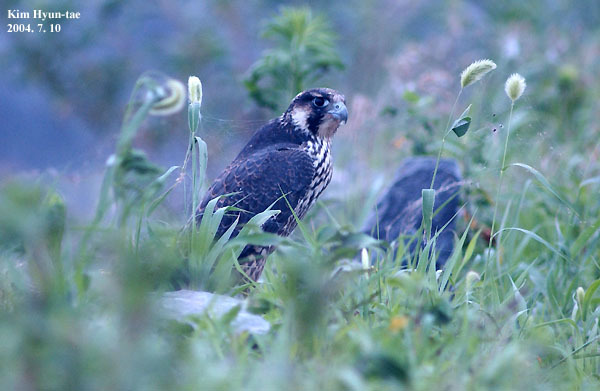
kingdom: Animalia
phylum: Chordata
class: Aves
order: Falconiformes
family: Falconidae
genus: Falco
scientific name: Falco peregrinus
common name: Peregrine falcon
